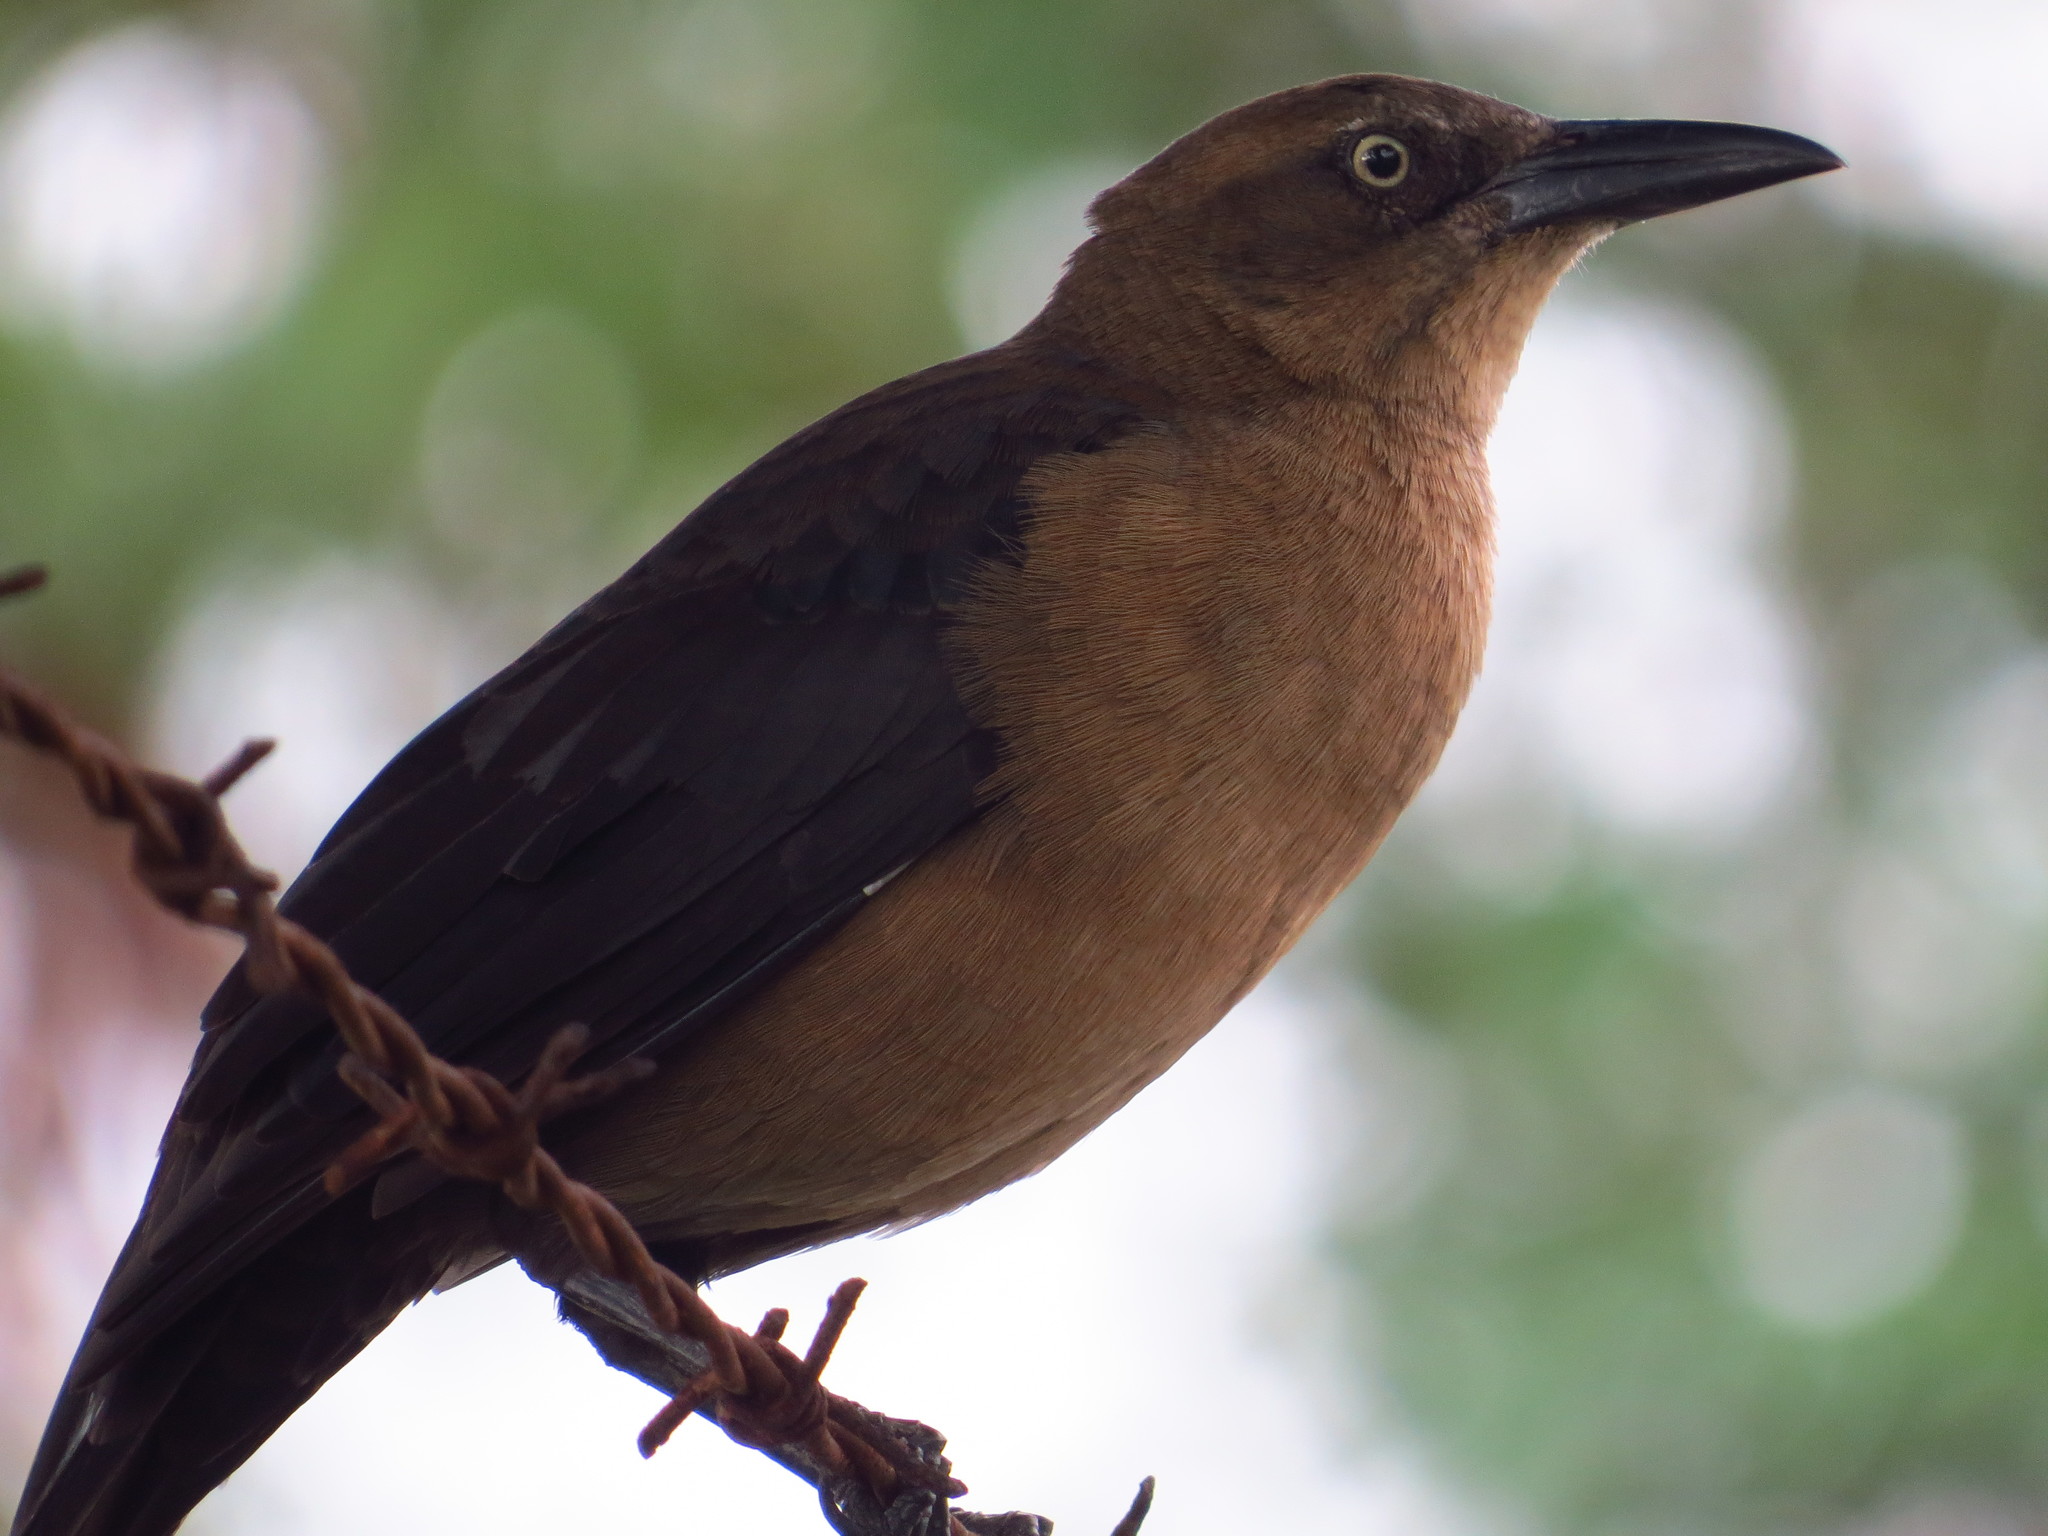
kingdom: Animalia
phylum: Chordata
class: Aves
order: Passeriformes
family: Icteridae
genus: Quiscalus
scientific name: Quiscalus mexicanus
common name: Great-tailed grackle
